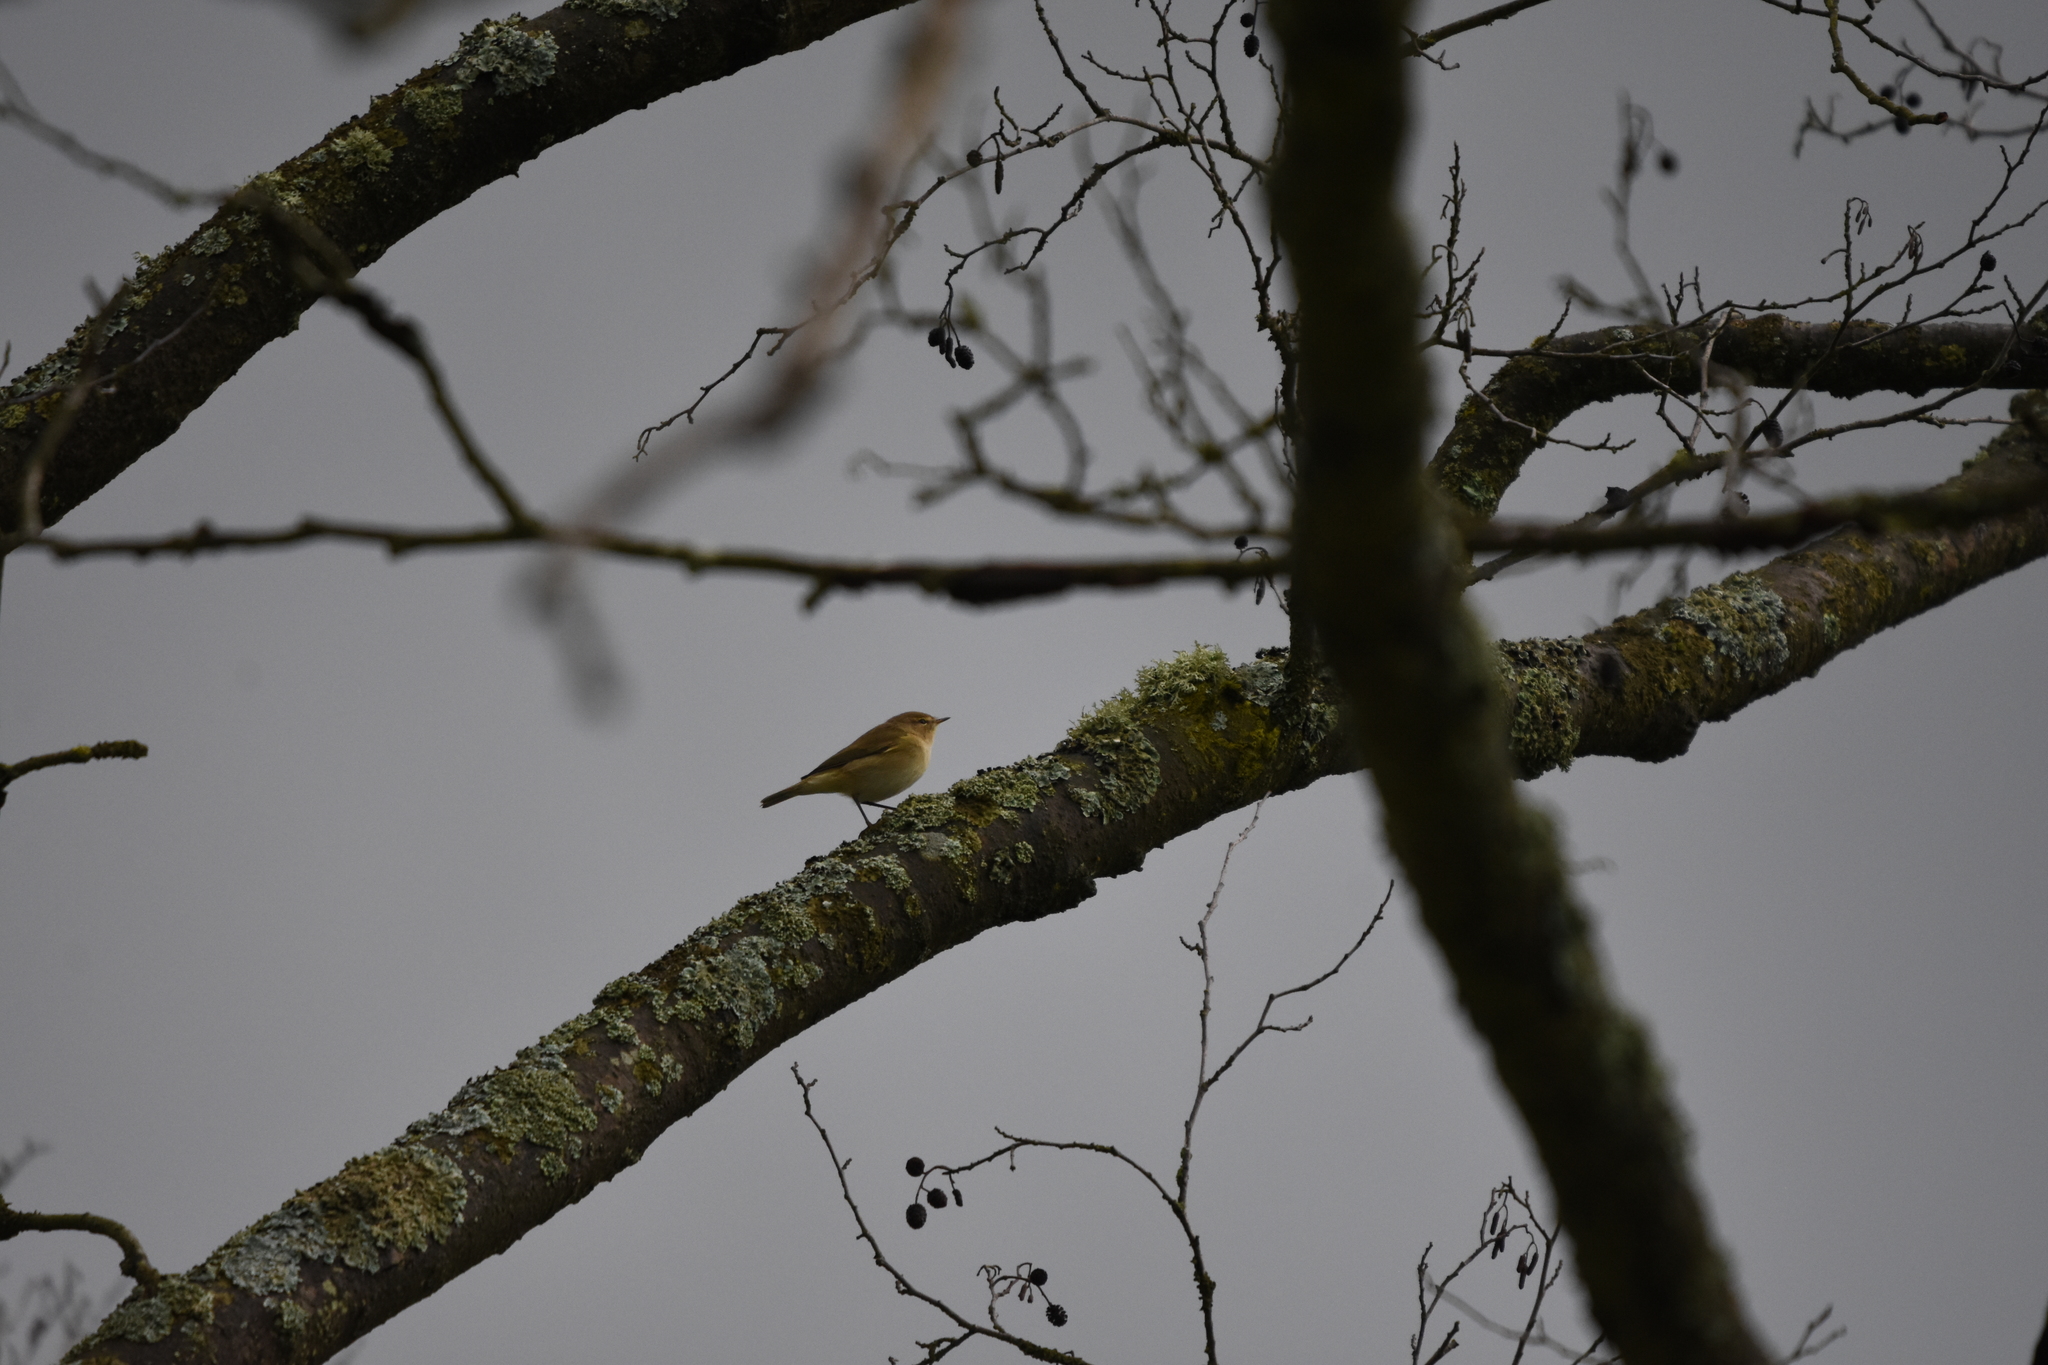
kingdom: Animalia
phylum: Chordata
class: Aves
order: Passeriformes
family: Phylloscopidae
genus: Phylloscopus
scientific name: Phylloscopus collybita
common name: Common chiffchaff
